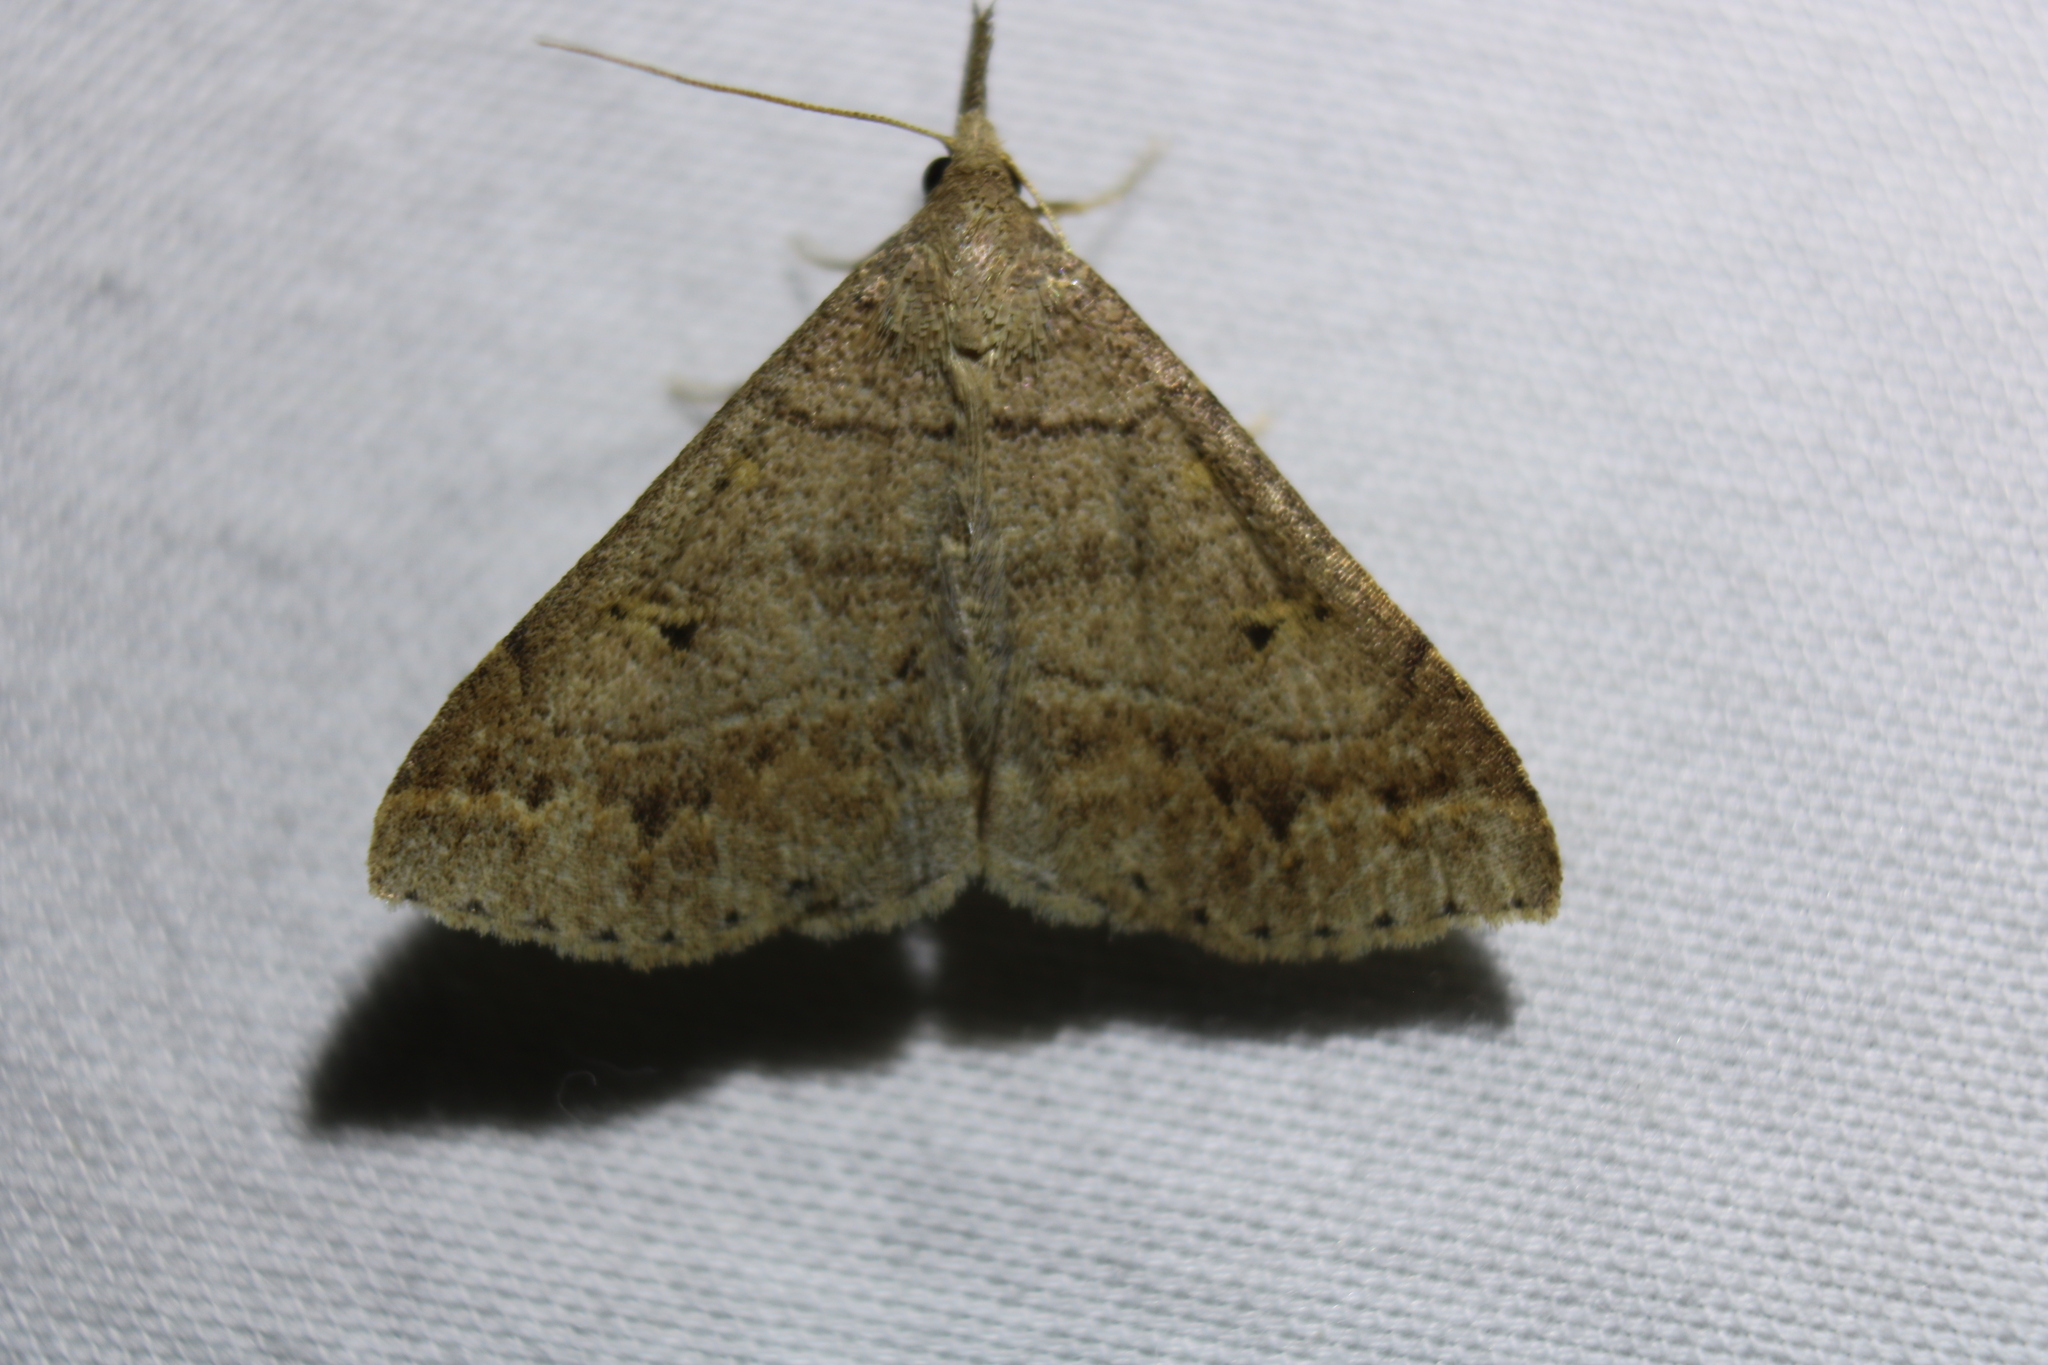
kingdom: Animalia
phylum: Arthropoda
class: Insecta
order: Lepidoptera
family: Erebidae
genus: Renia
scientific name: Renia flavipunctalis
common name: Yellow-spotted renia moth
